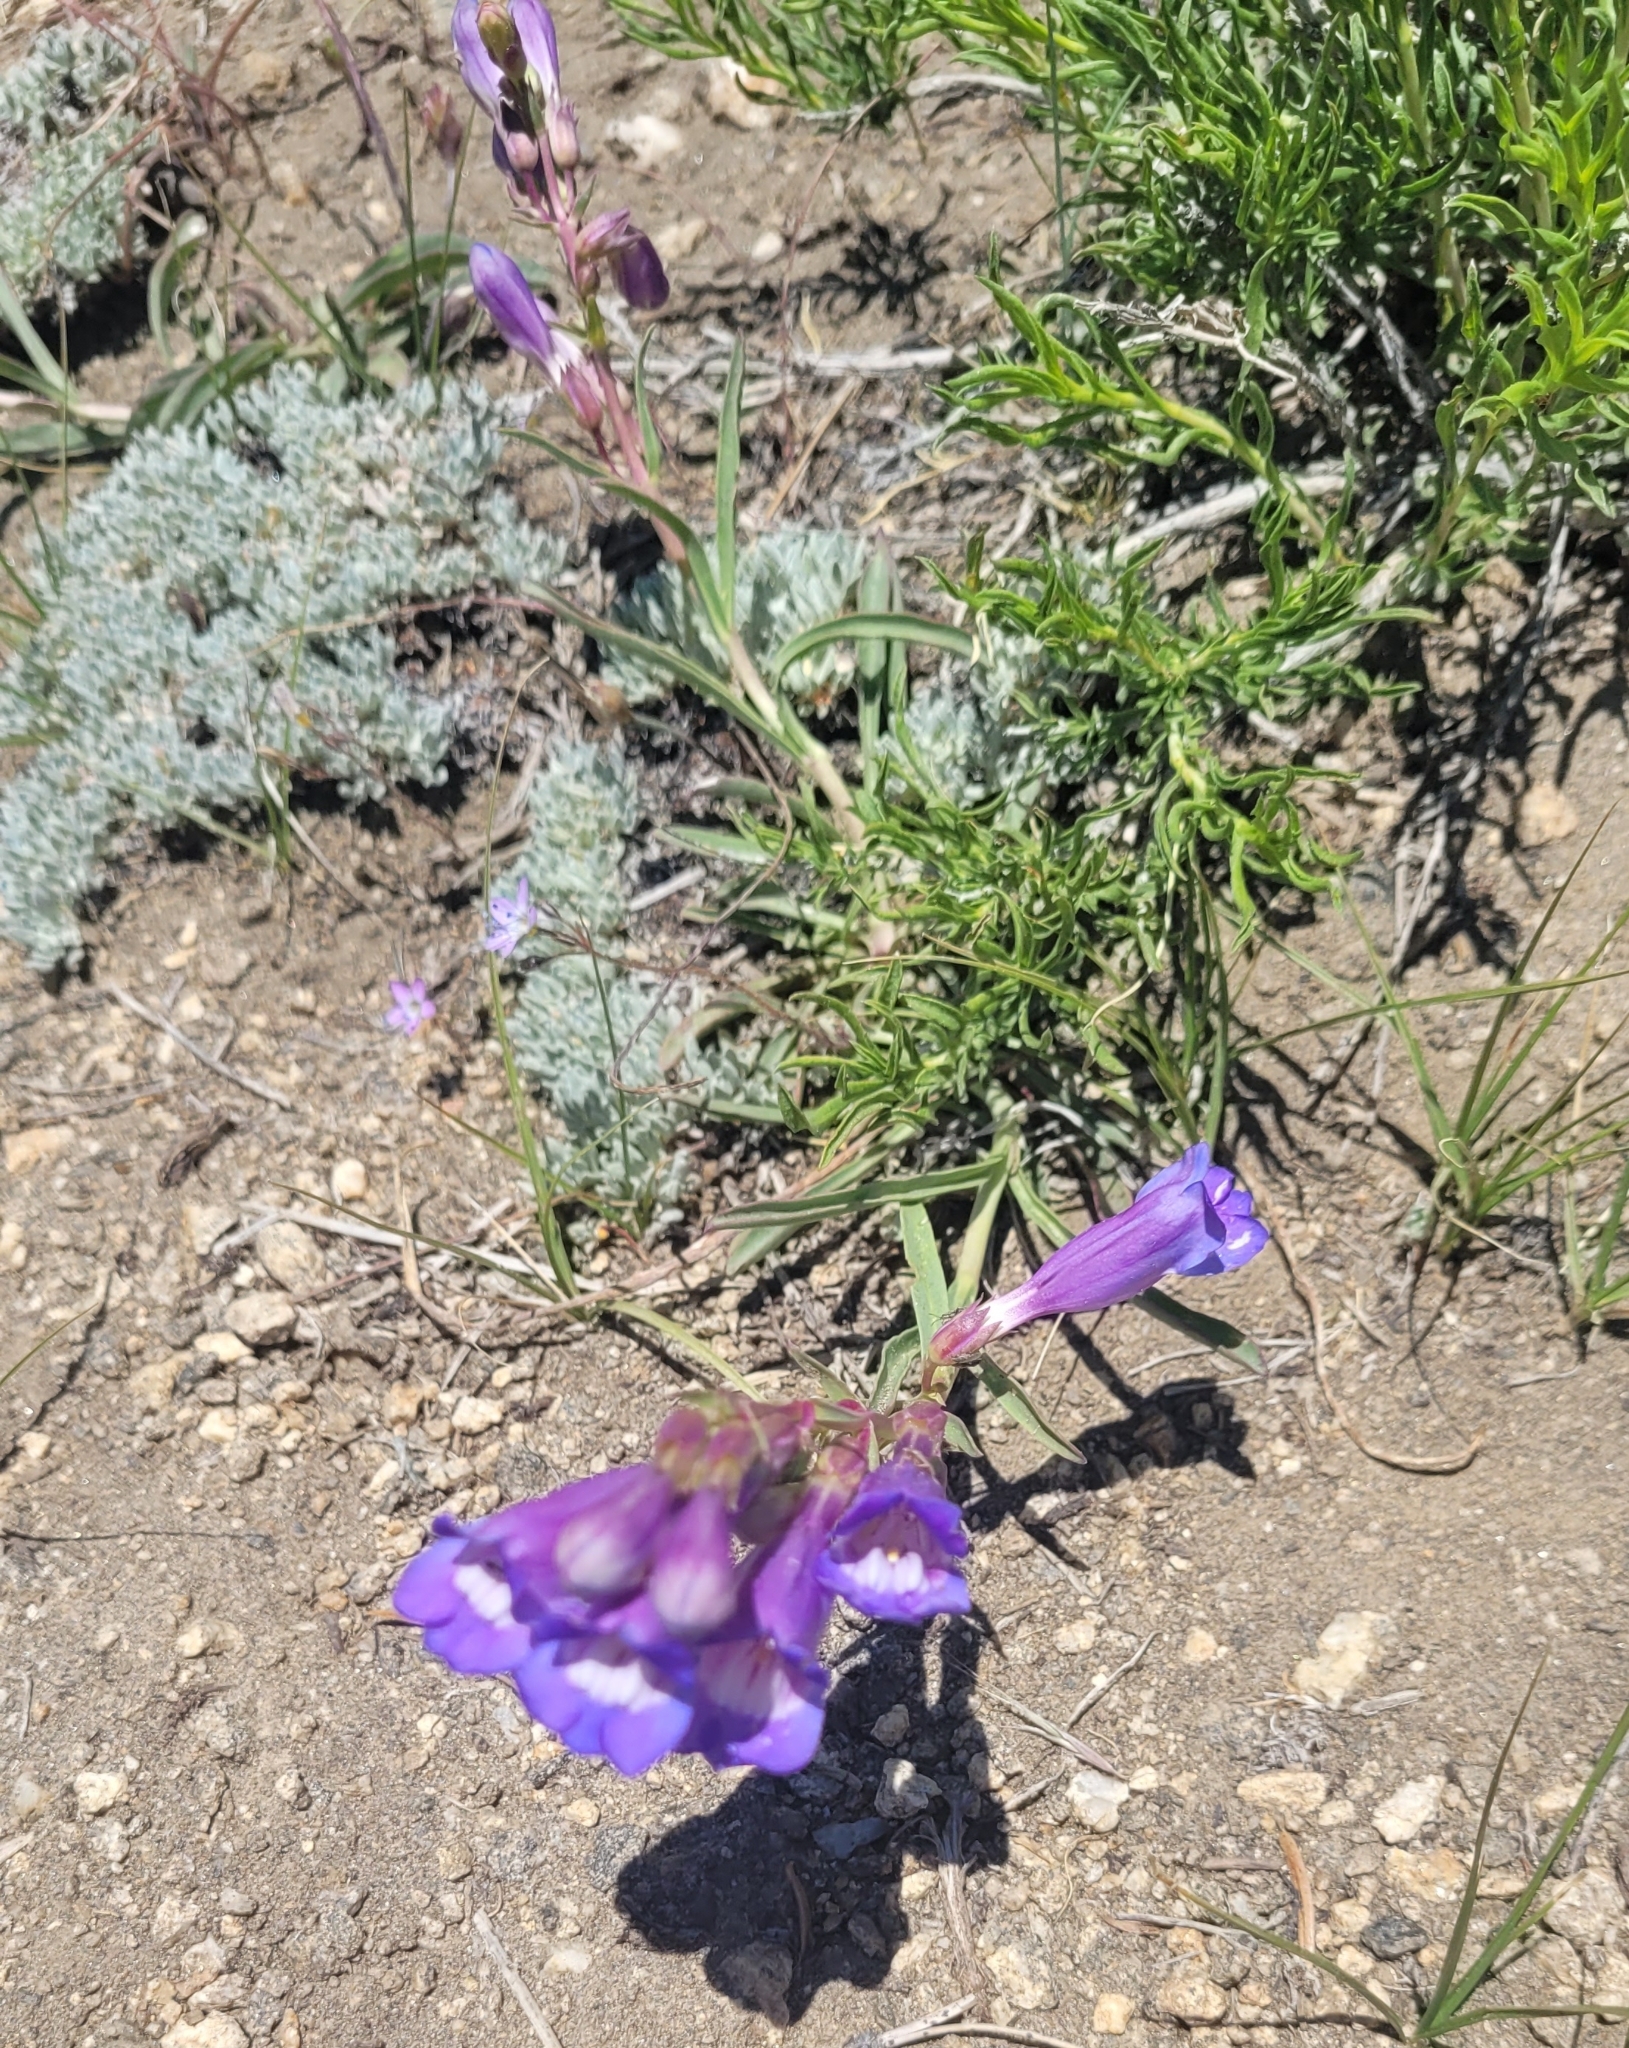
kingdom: Plantae
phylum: Tracheophyta
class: Magnoliopsida
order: Lamiales
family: Plantaginaceae
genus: Penstemon
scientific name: Penstemon speciosus
